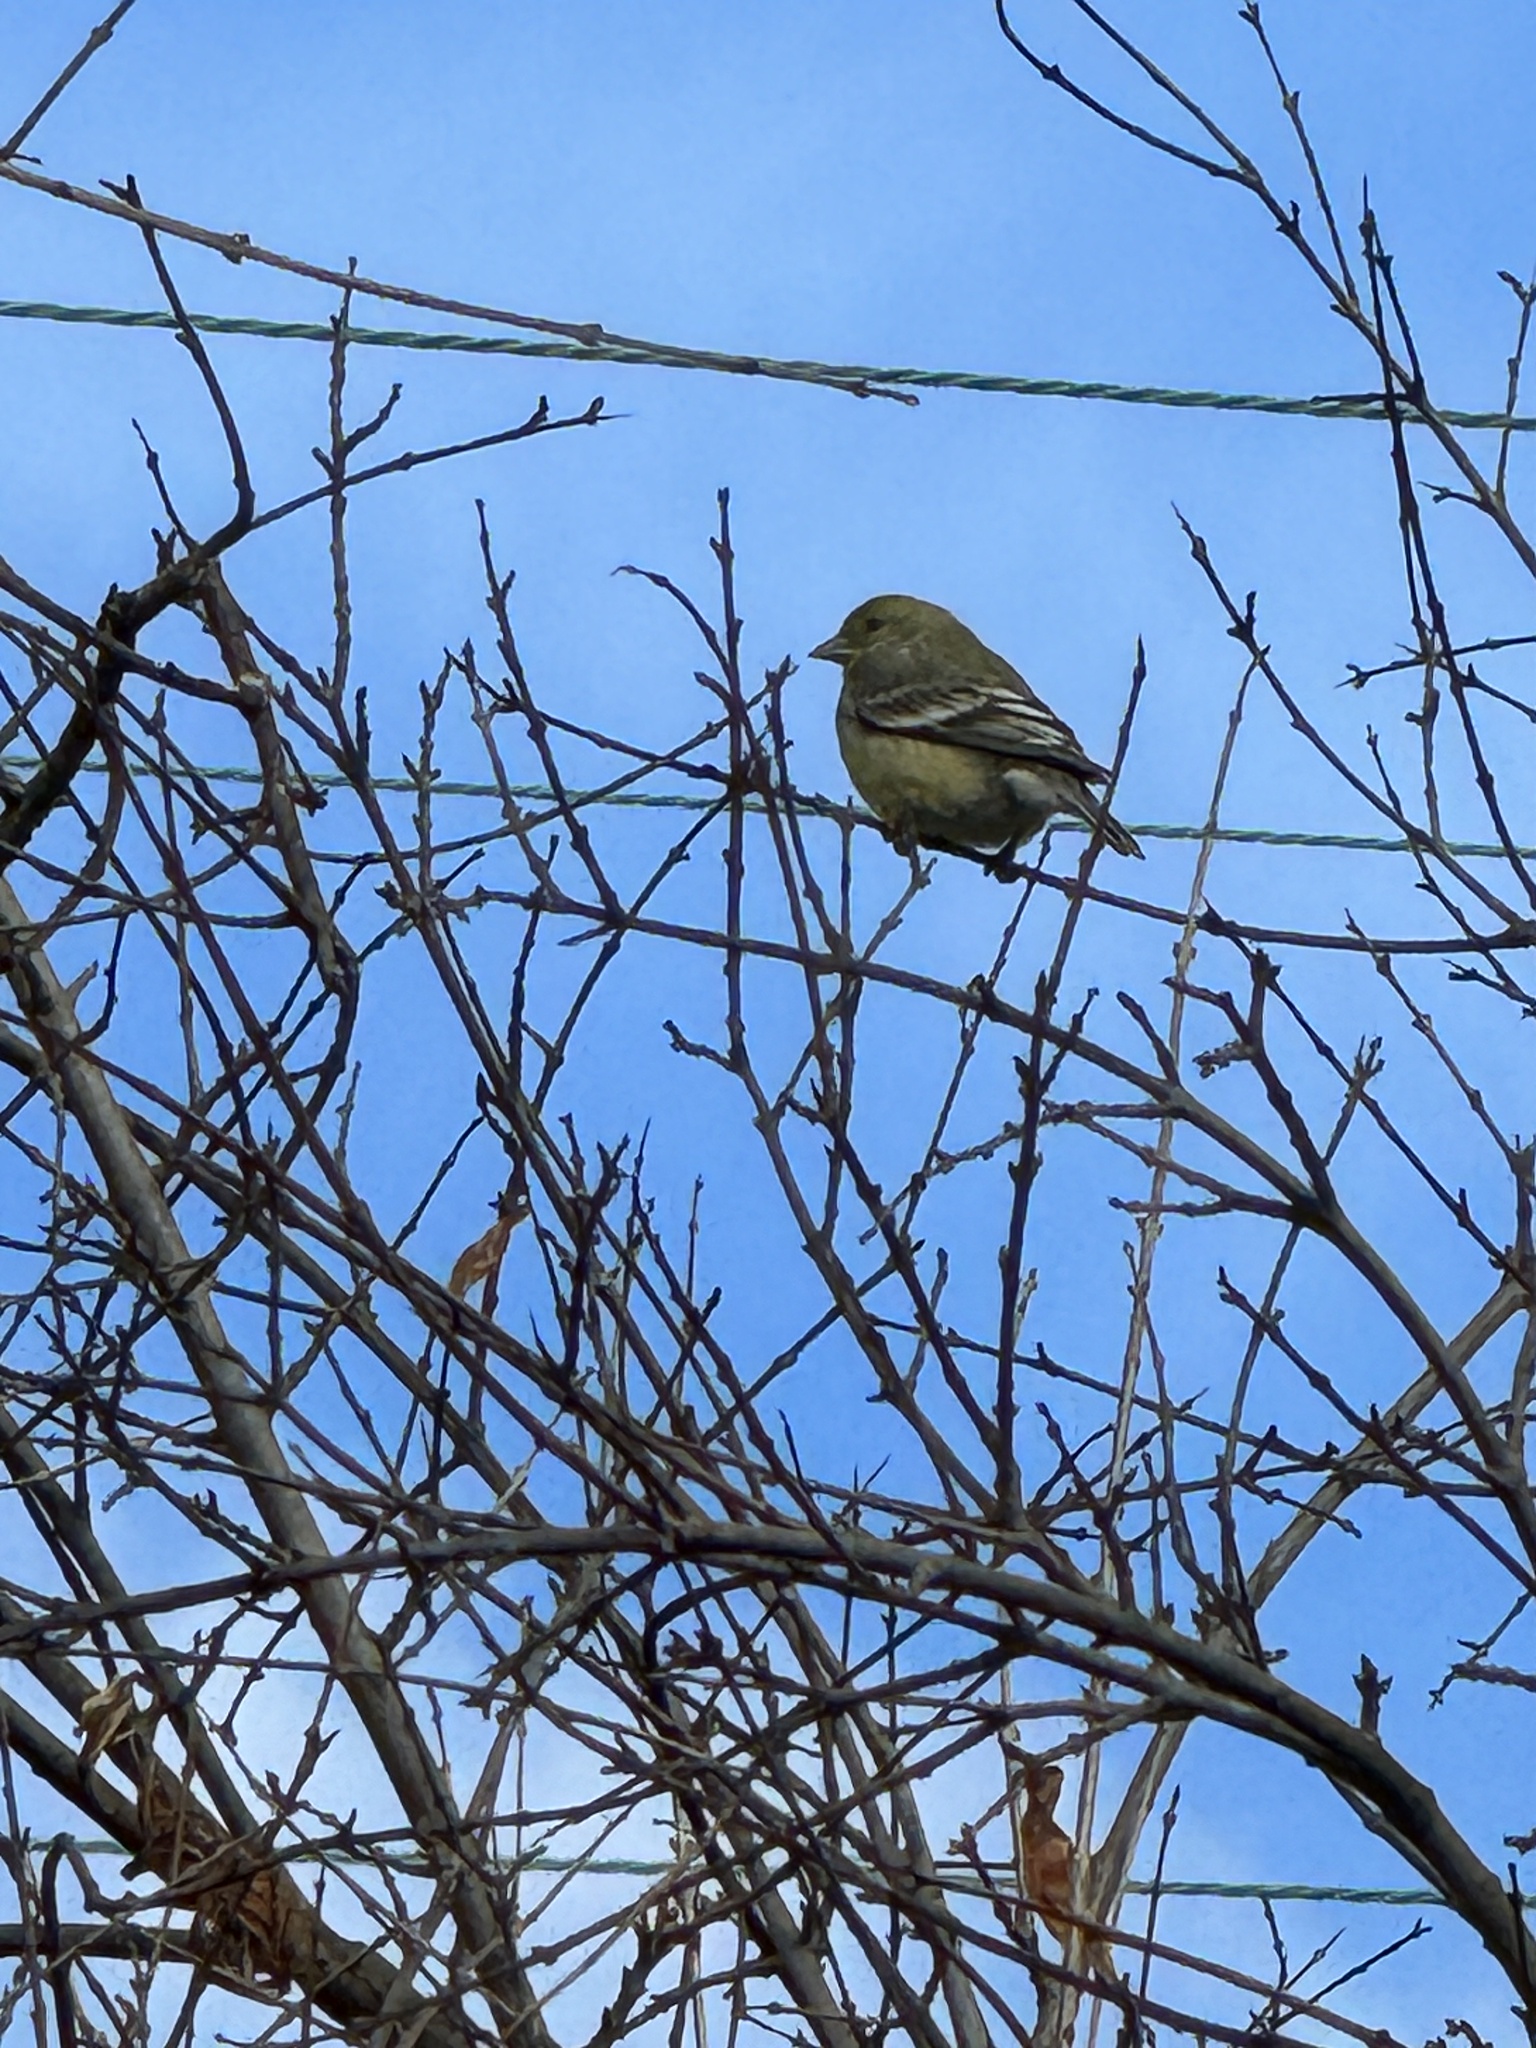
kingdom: Animalia
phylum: Chordata
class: Aves
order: Passeriformes
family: Fringillidae
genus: Spinus
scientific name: Spinus psaltria
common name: Lesser goldfinch
